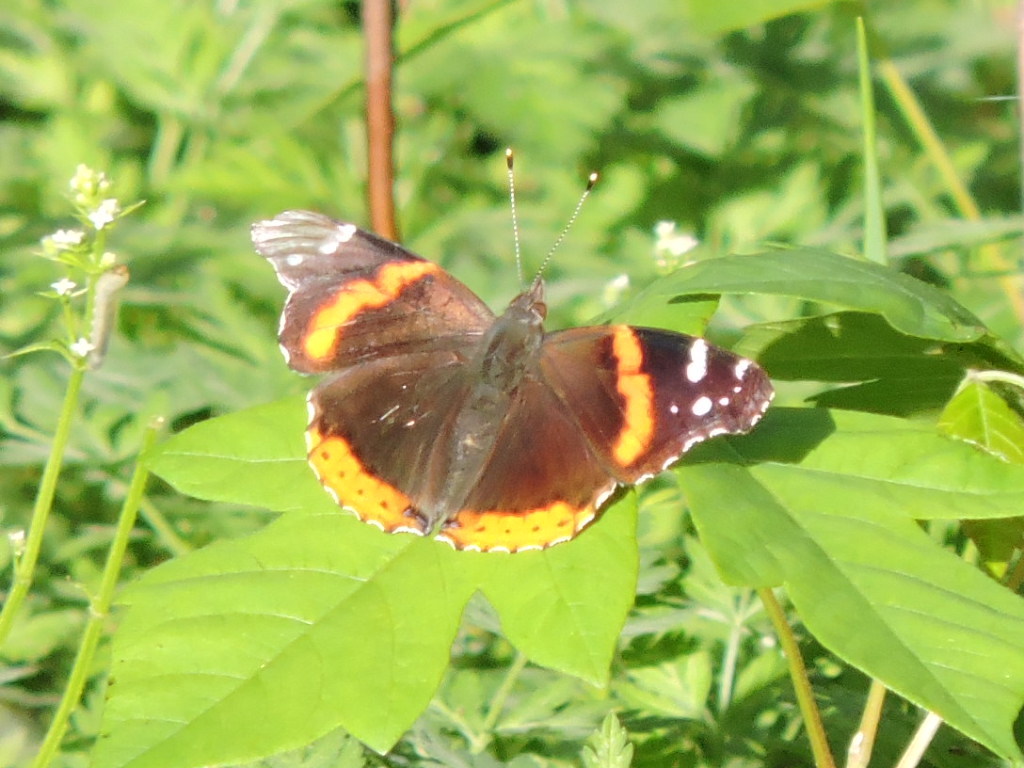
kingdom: Animalia
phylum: Arthropoda
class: Insecta
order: Lepidoptera
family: Nymphalidae
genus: Vanessa
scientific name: Vanessa atalanta
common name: Red admiral
